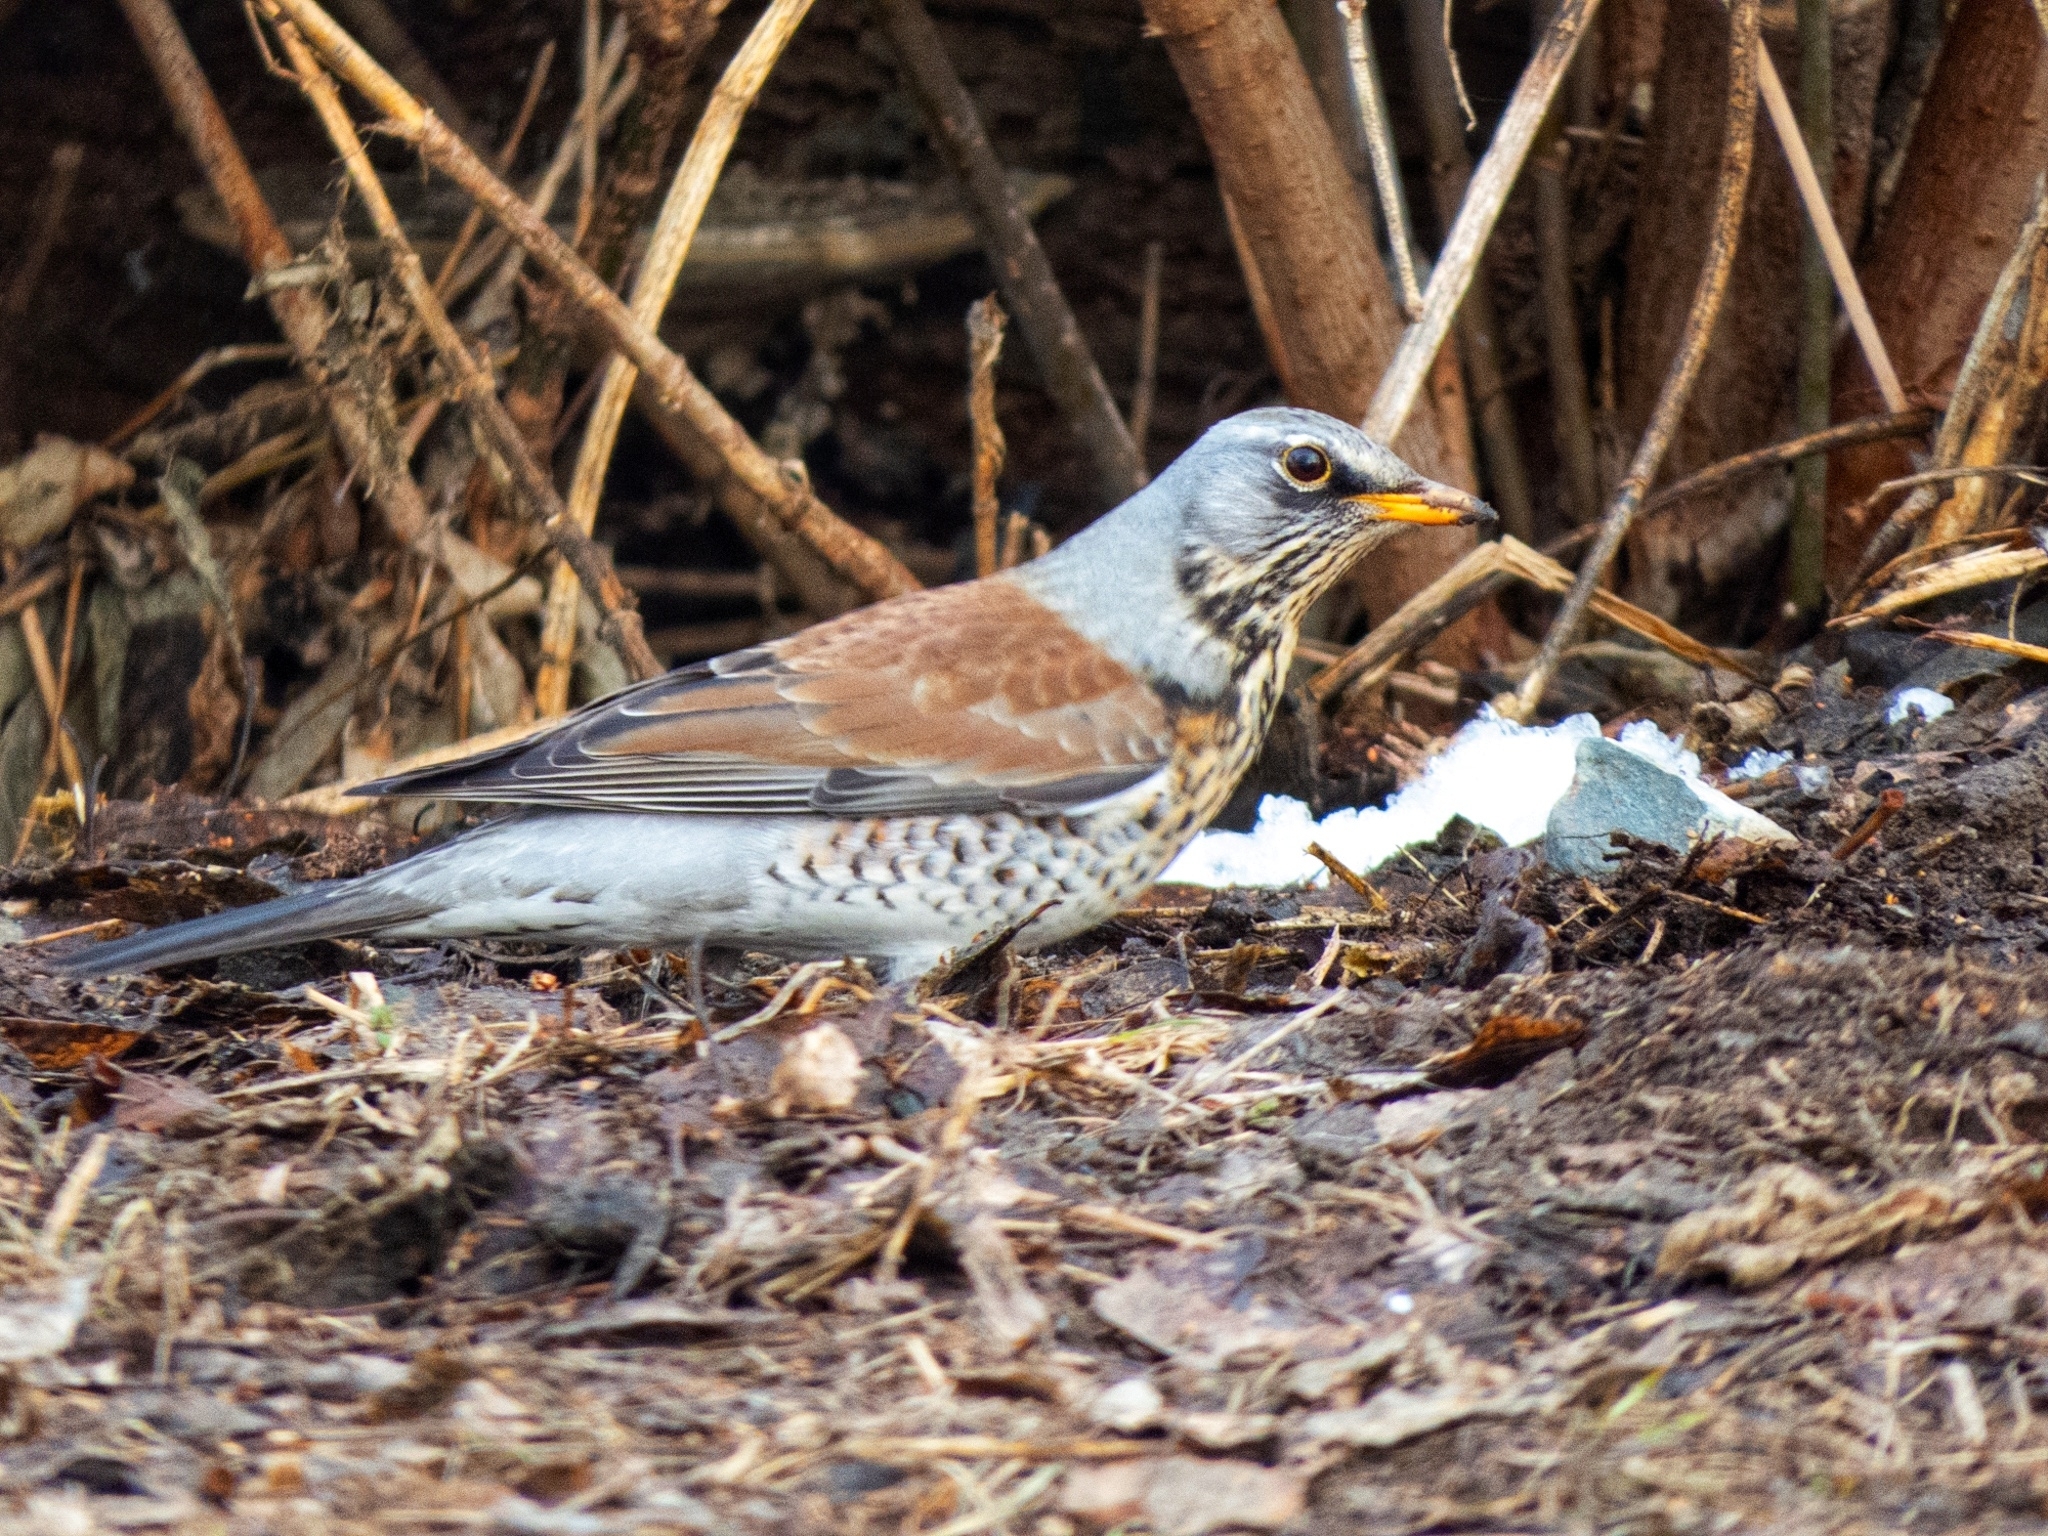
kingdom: Animalia
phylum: Chordata
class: Aves
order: Passeriformes
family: Turdidae
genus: Turdus
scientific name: Turdus pilaris
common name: Fieldfare
